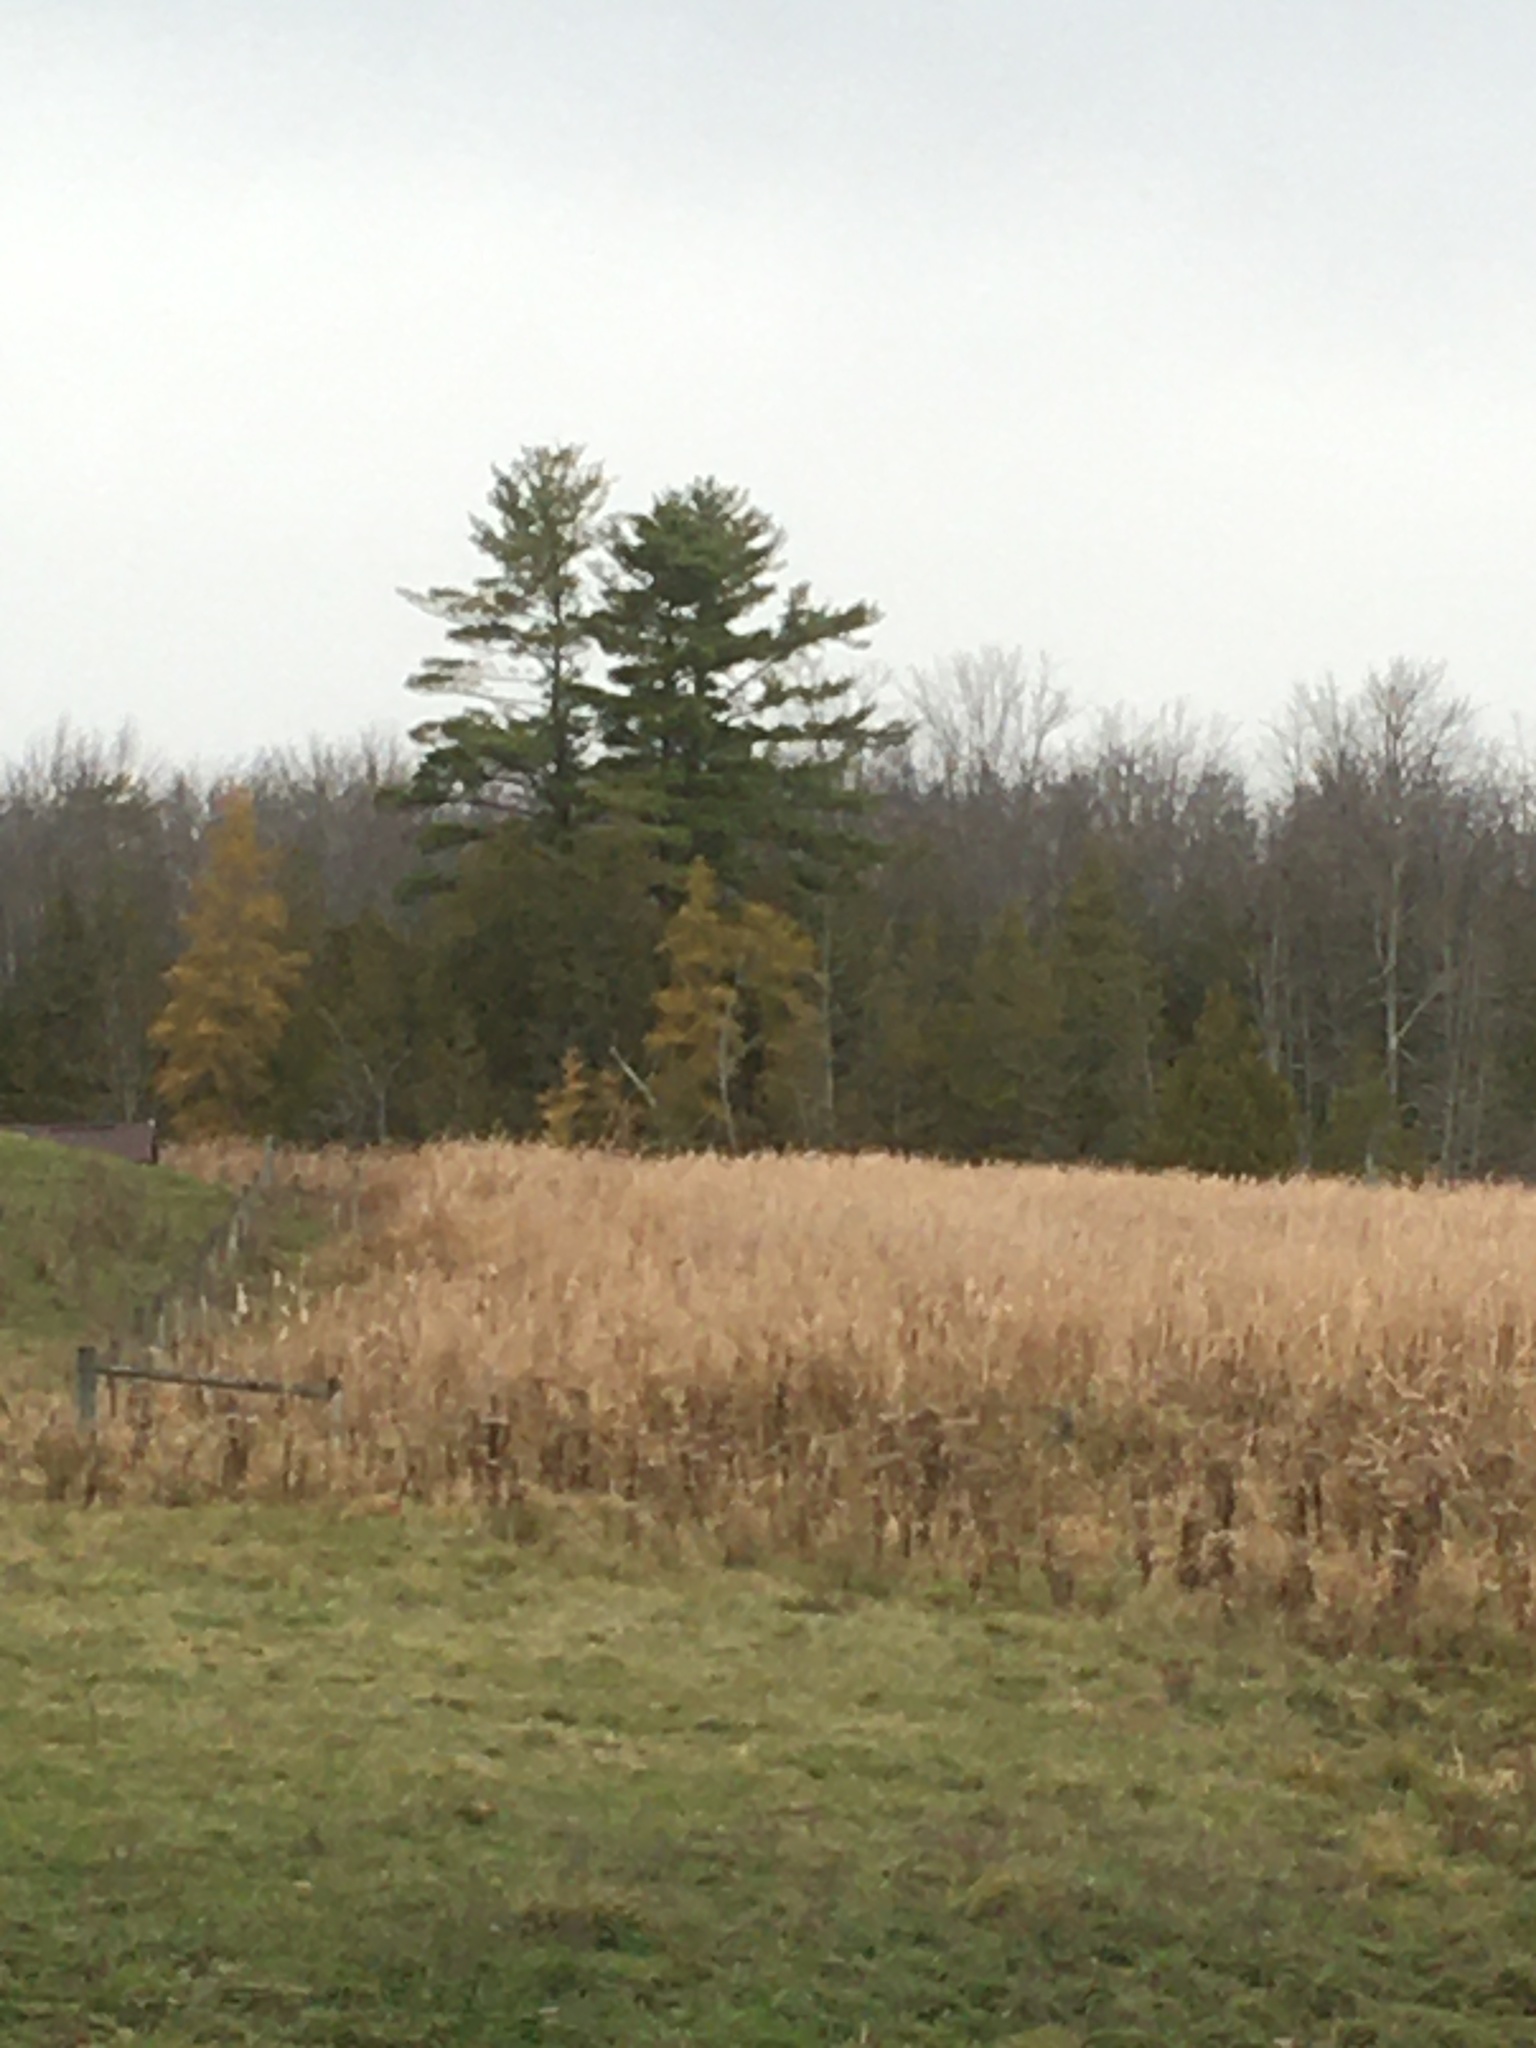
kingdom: Plantae
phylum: Tracheophyta
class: Pinopsida
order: Pinales
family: Pinaceae
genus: Pinus
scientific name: Pinus strobus
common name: Weymouth pine
